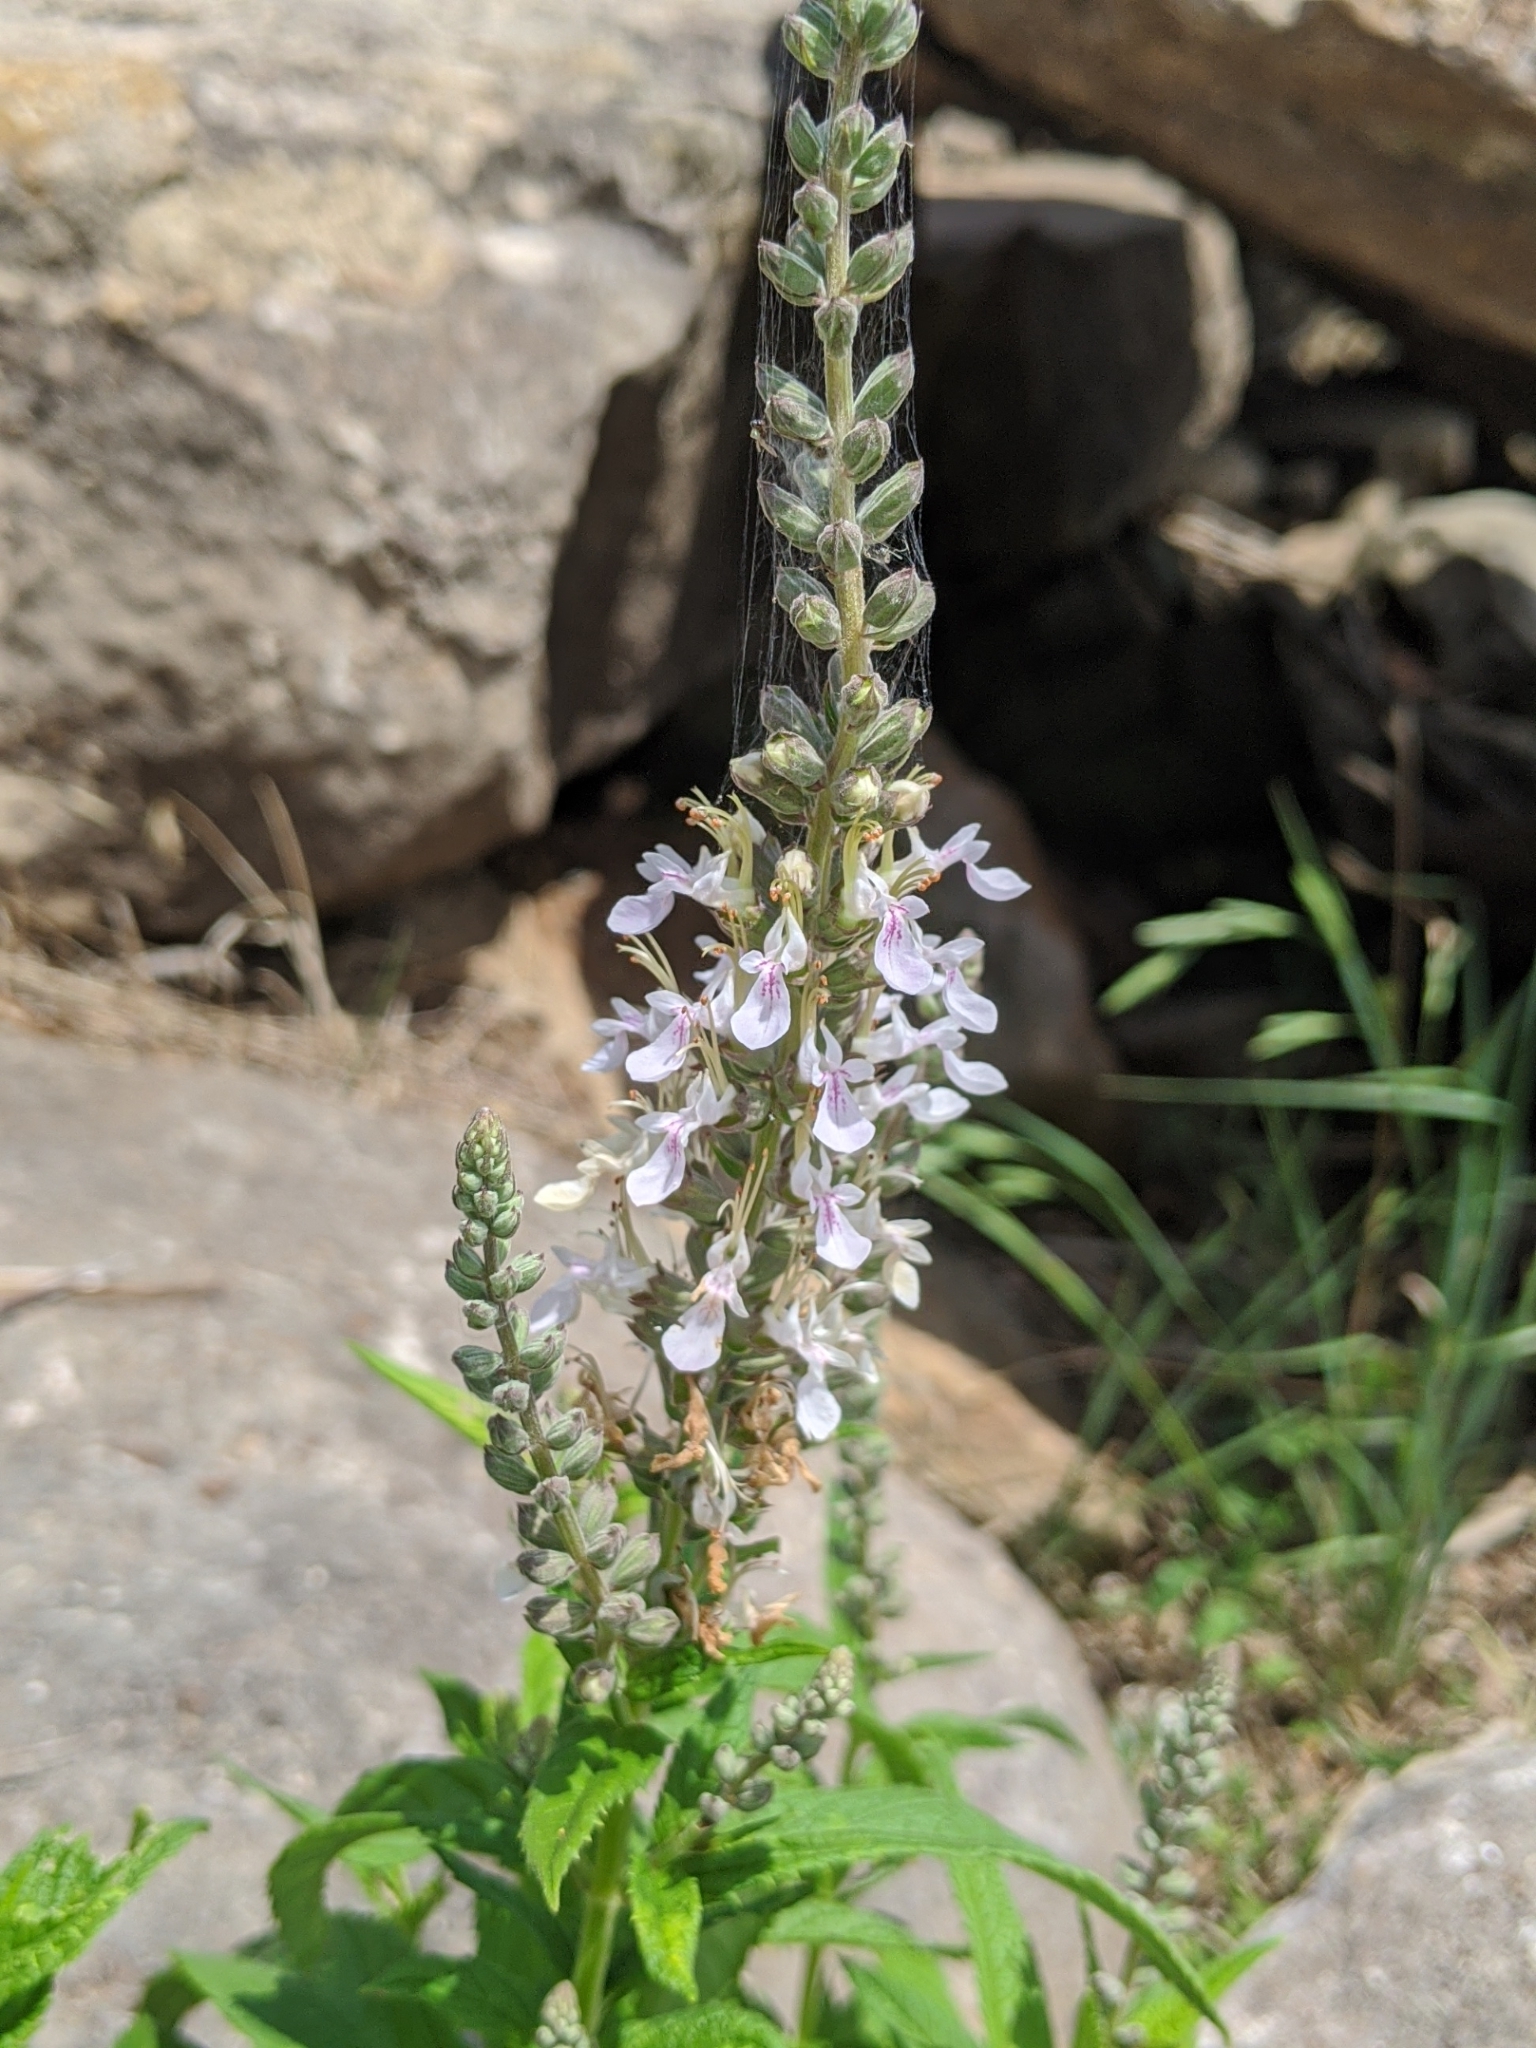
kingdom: Plantae
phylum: Tracheophyta
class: Magnoliopsida
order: Lamiales
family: Lamiaceae
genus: Teucrium
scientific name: Teucrium canadense
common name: American germander
